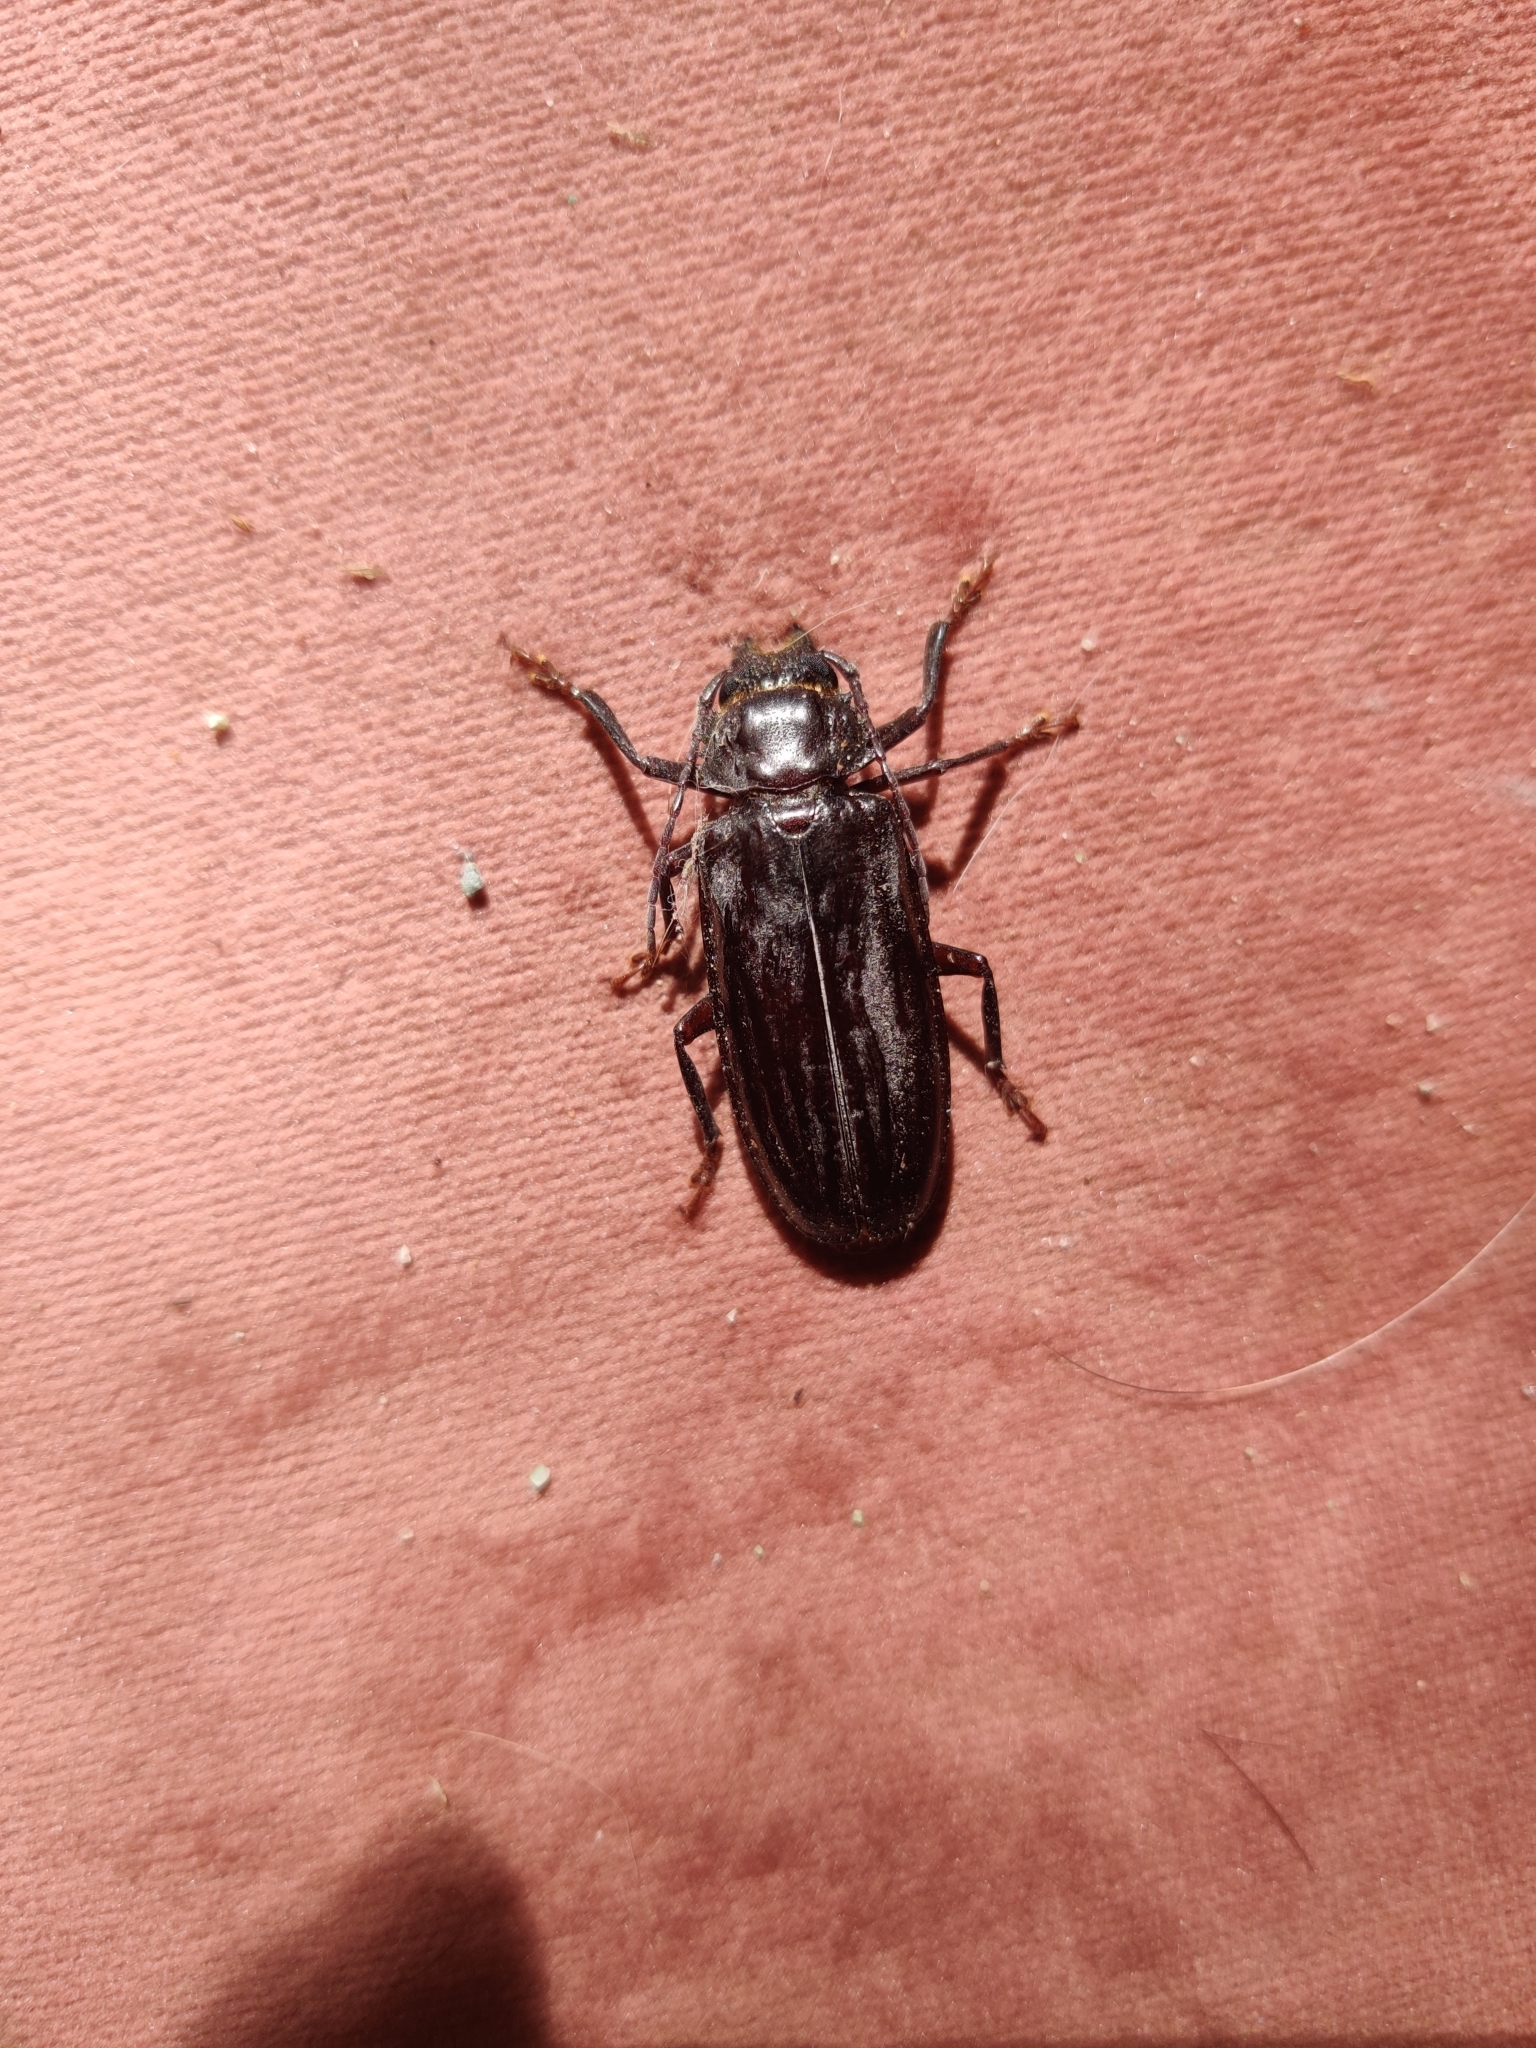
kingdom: Animalia
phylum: Arthropoda
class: Insecta
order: Coleoptera
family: Cerambycidae
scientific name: Cerambycidae
